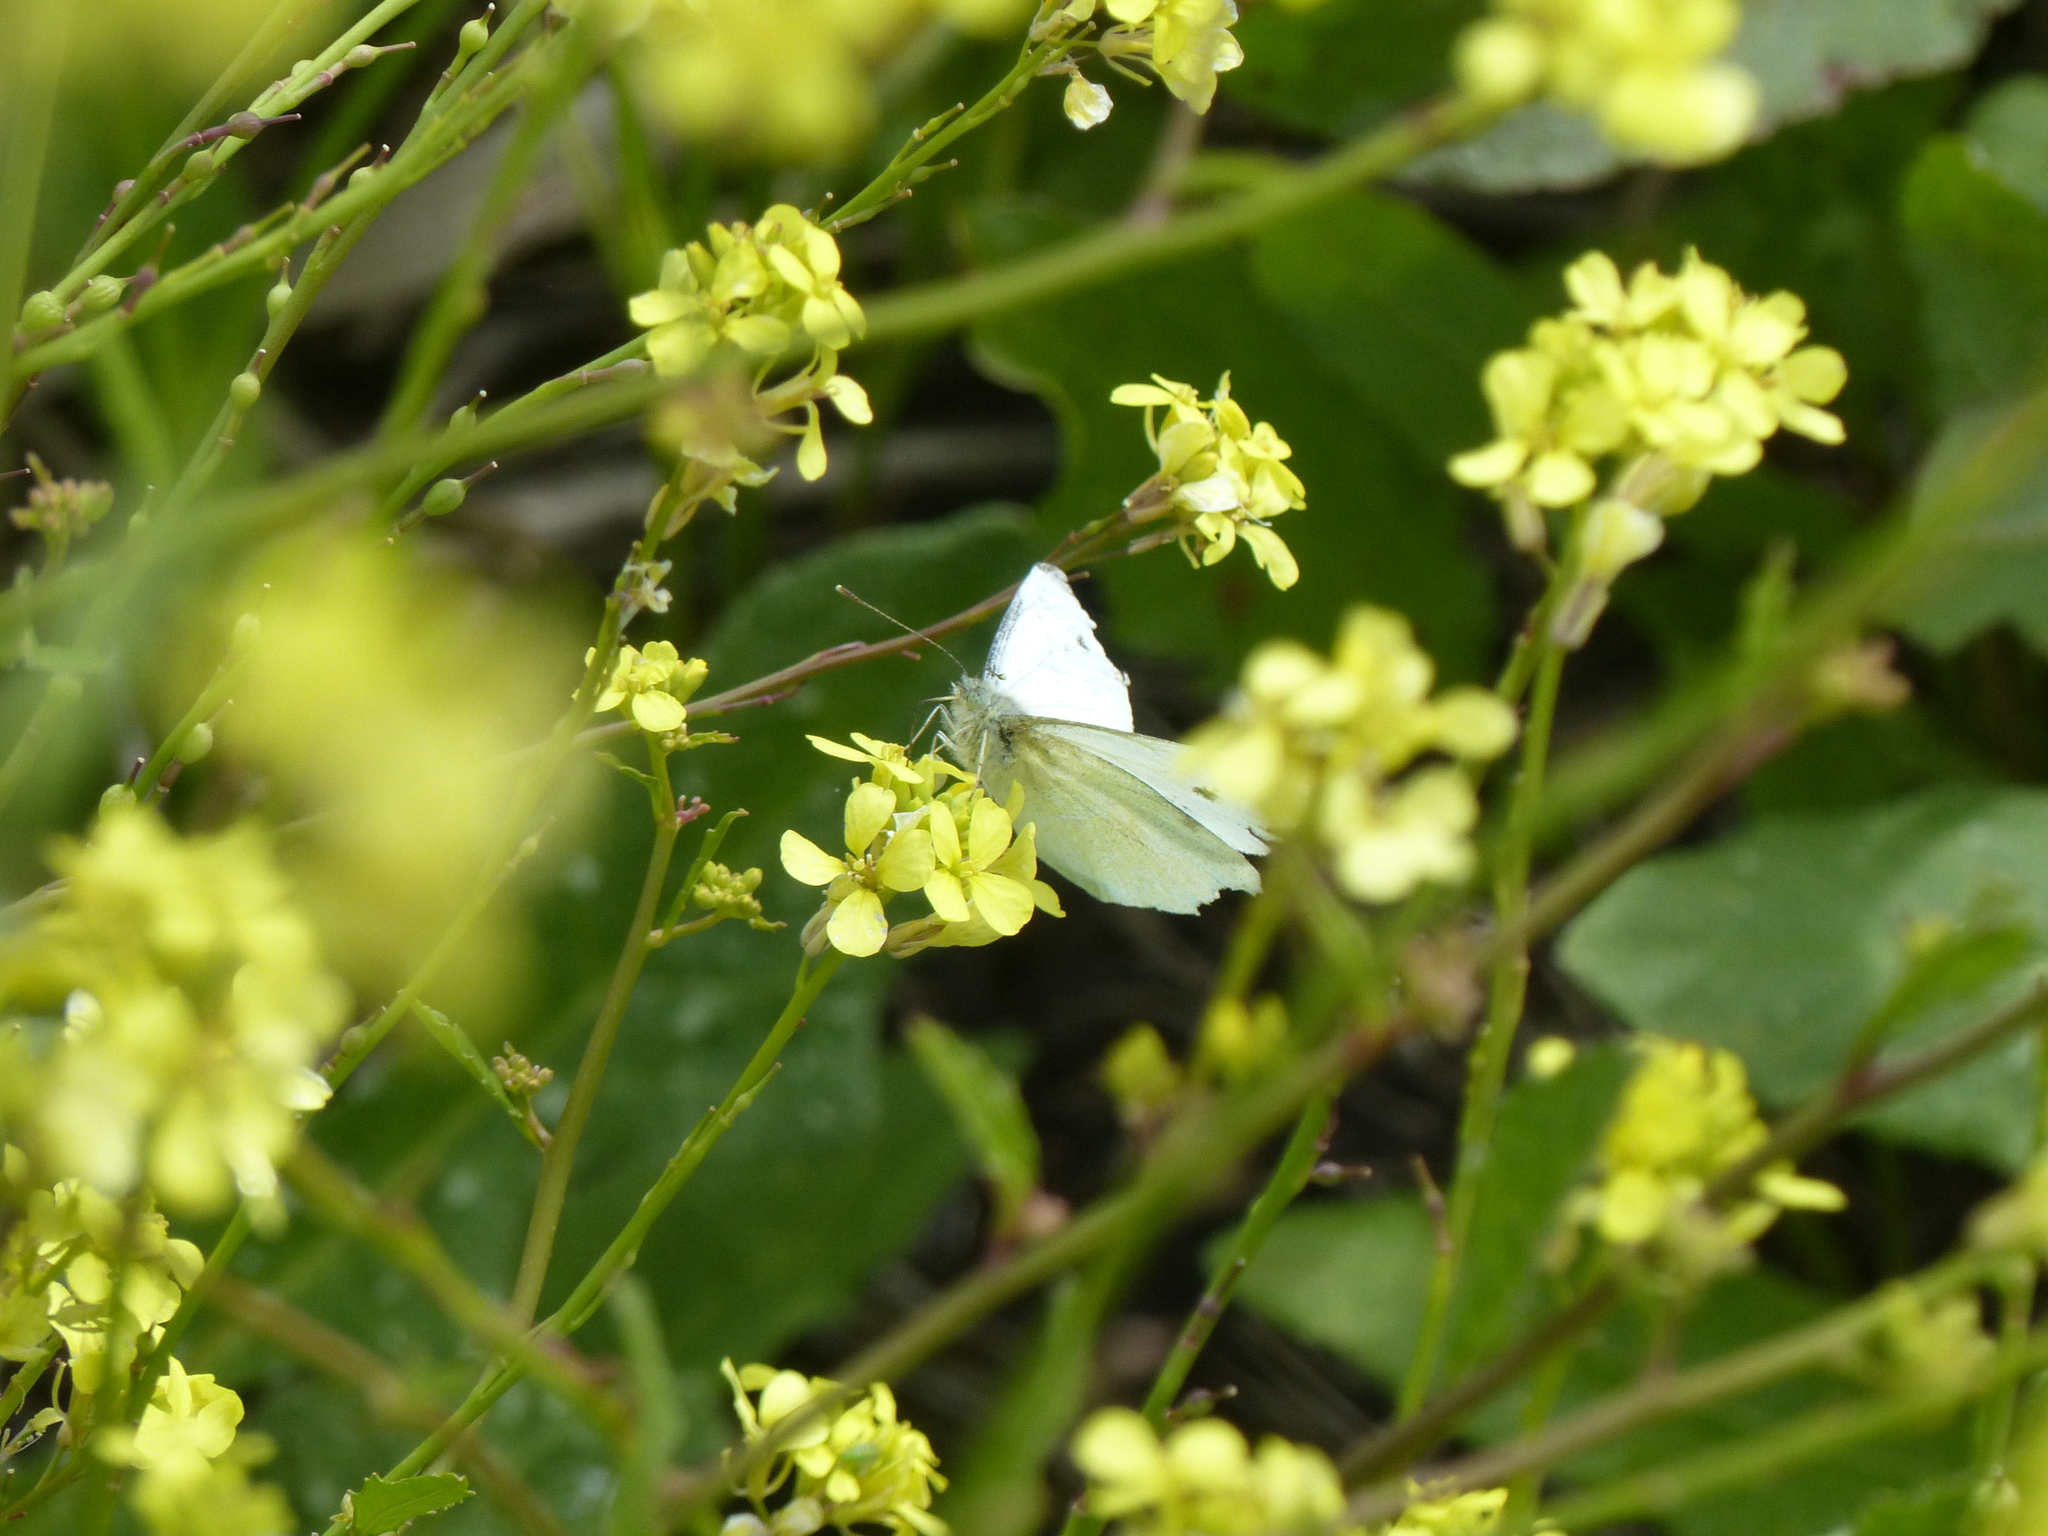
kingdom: Animalia
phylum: Arthropoda
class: Insecta
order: Lepidoptera
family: Pieridae
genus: Pieris
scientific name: Pieris rapae
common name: Small white
